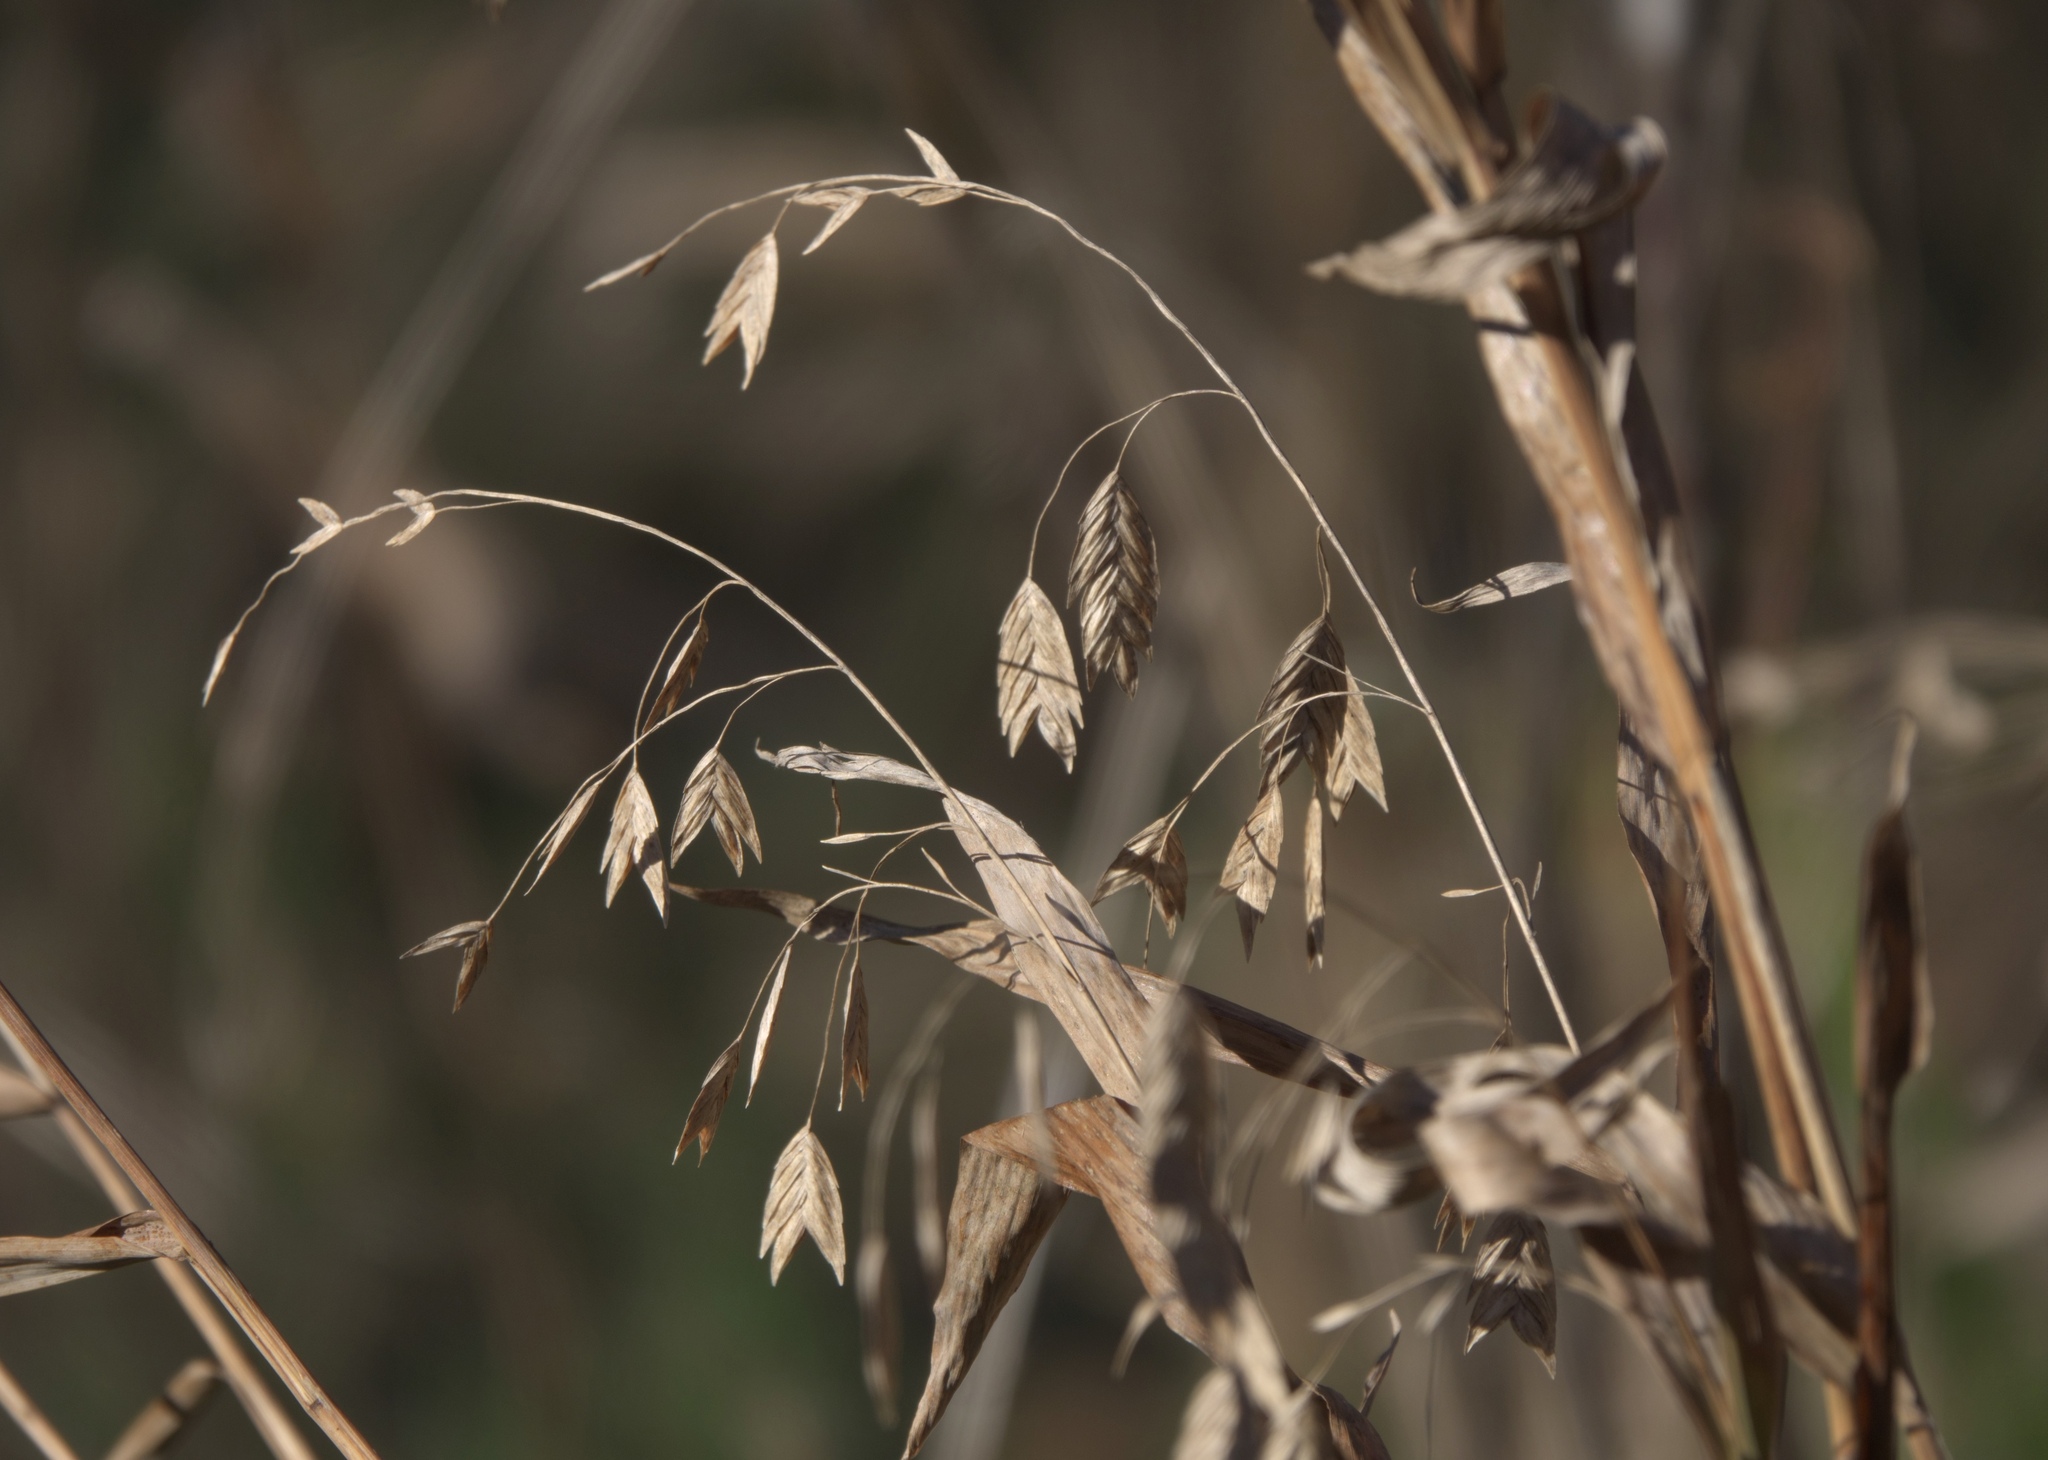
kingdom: Plantae
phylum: Tracheophyta
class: Liliopsida
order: Poales
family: Poaceae
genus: Chasmanthium
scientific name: Chasmanthium latifolium
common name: Broad-leaved chasmanthium
